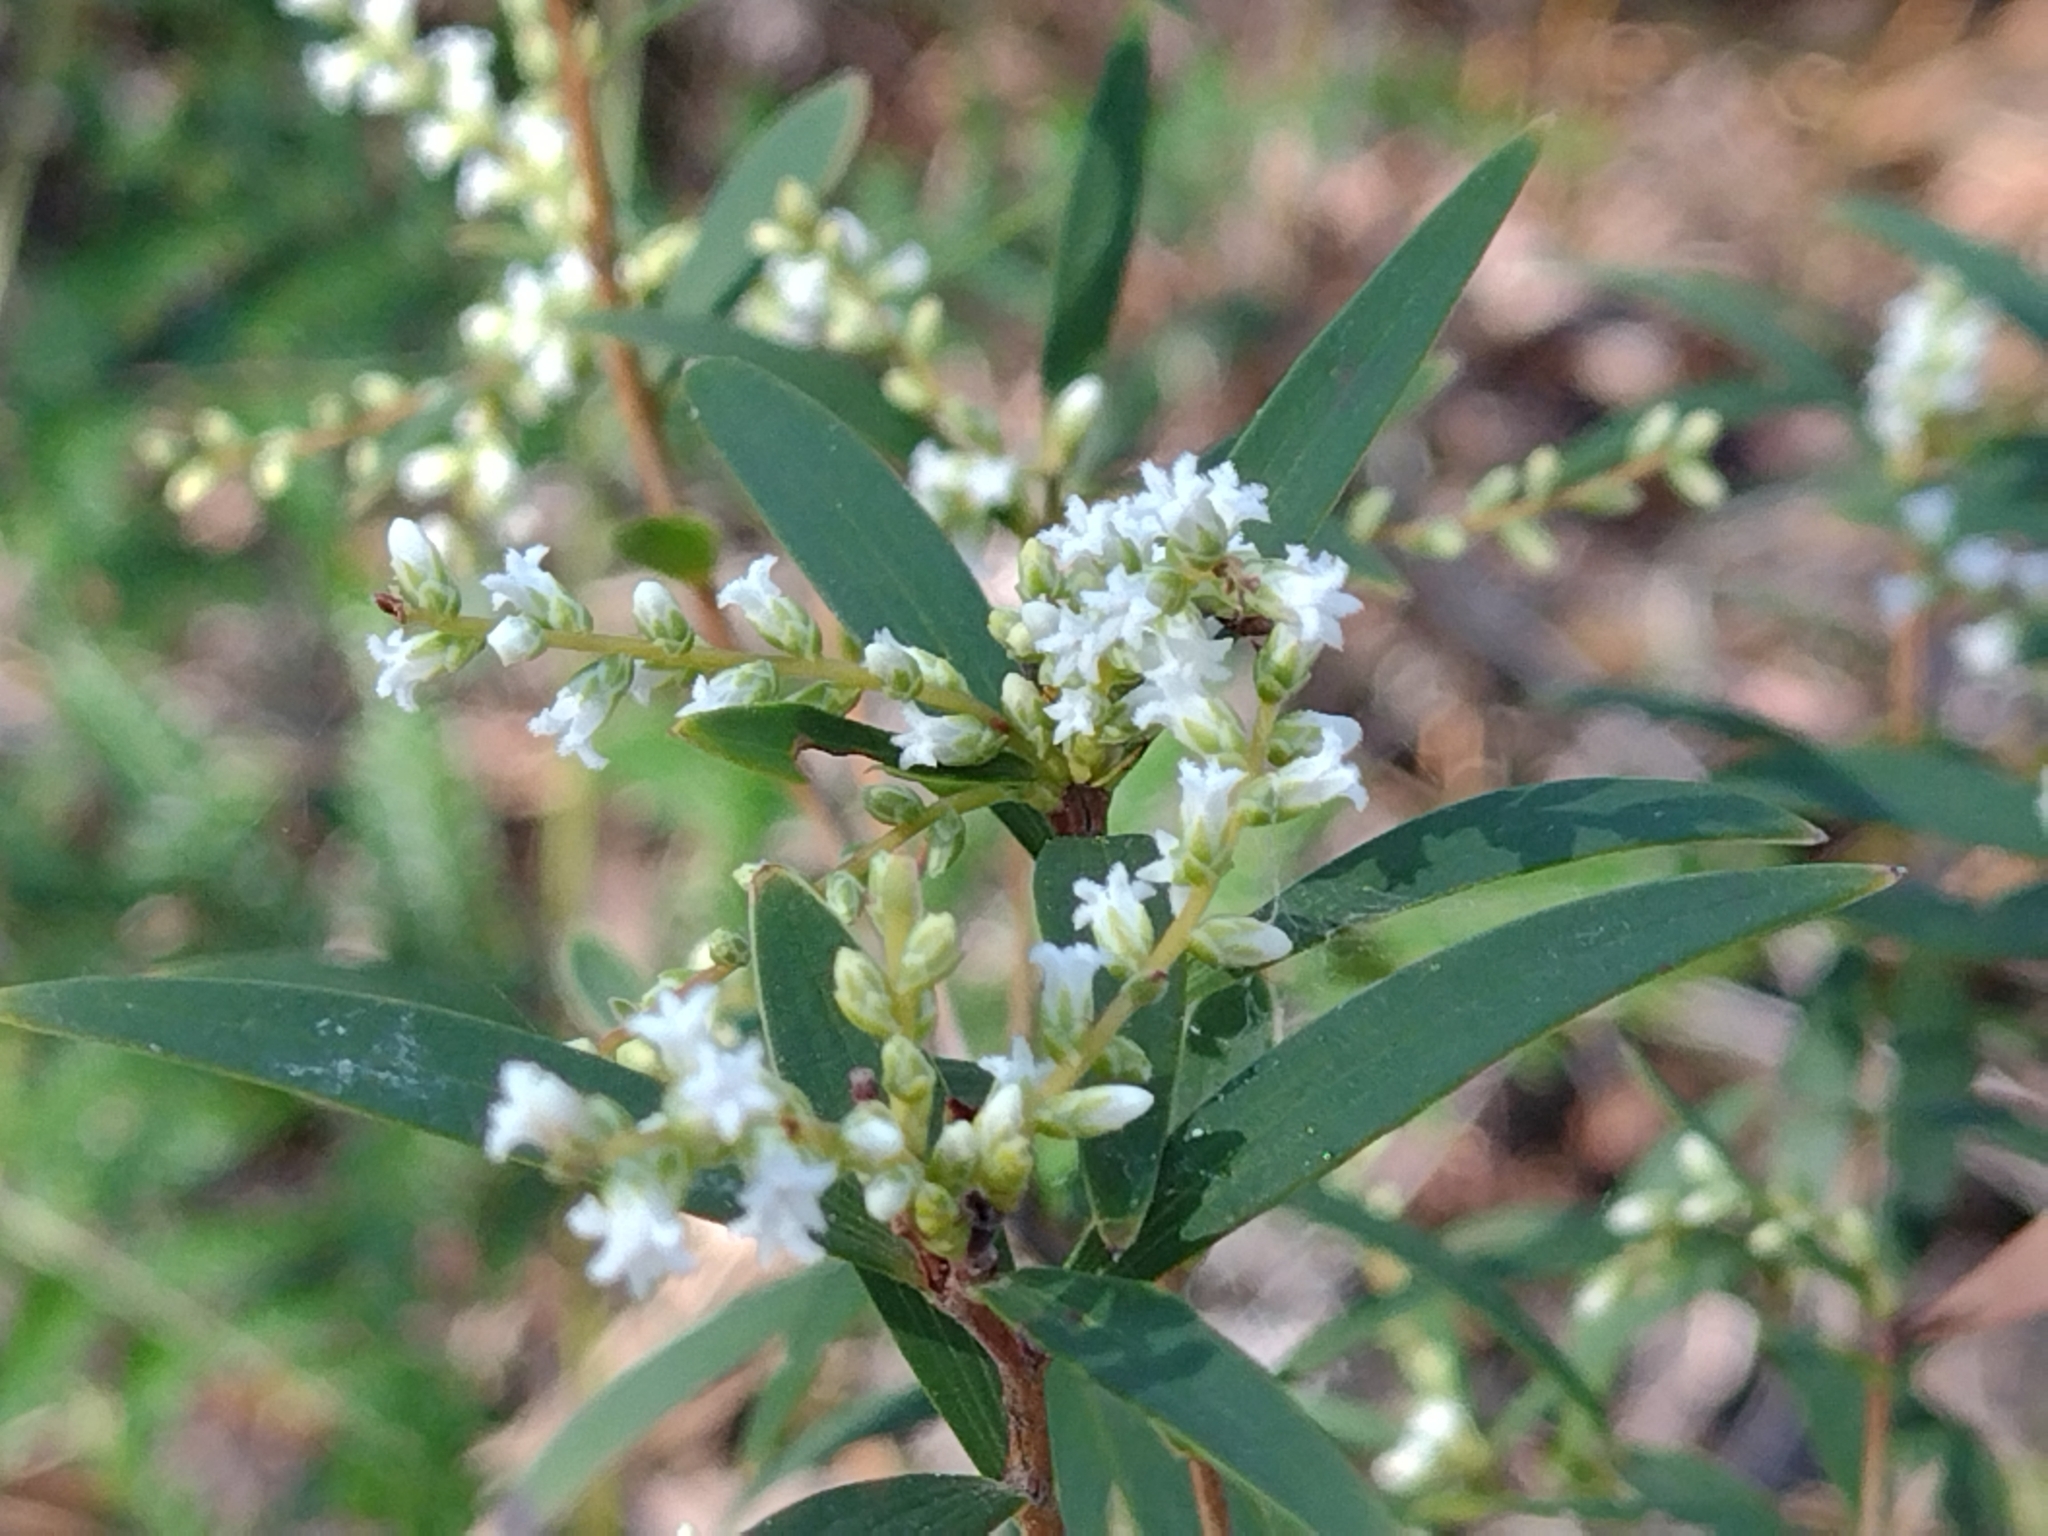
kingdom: Plantae
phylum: Tracheophyta
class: Magnoliopsida
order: Ericales
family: Ericaceae
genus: Leucopogon
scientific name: Leucopogon lanceolatus
